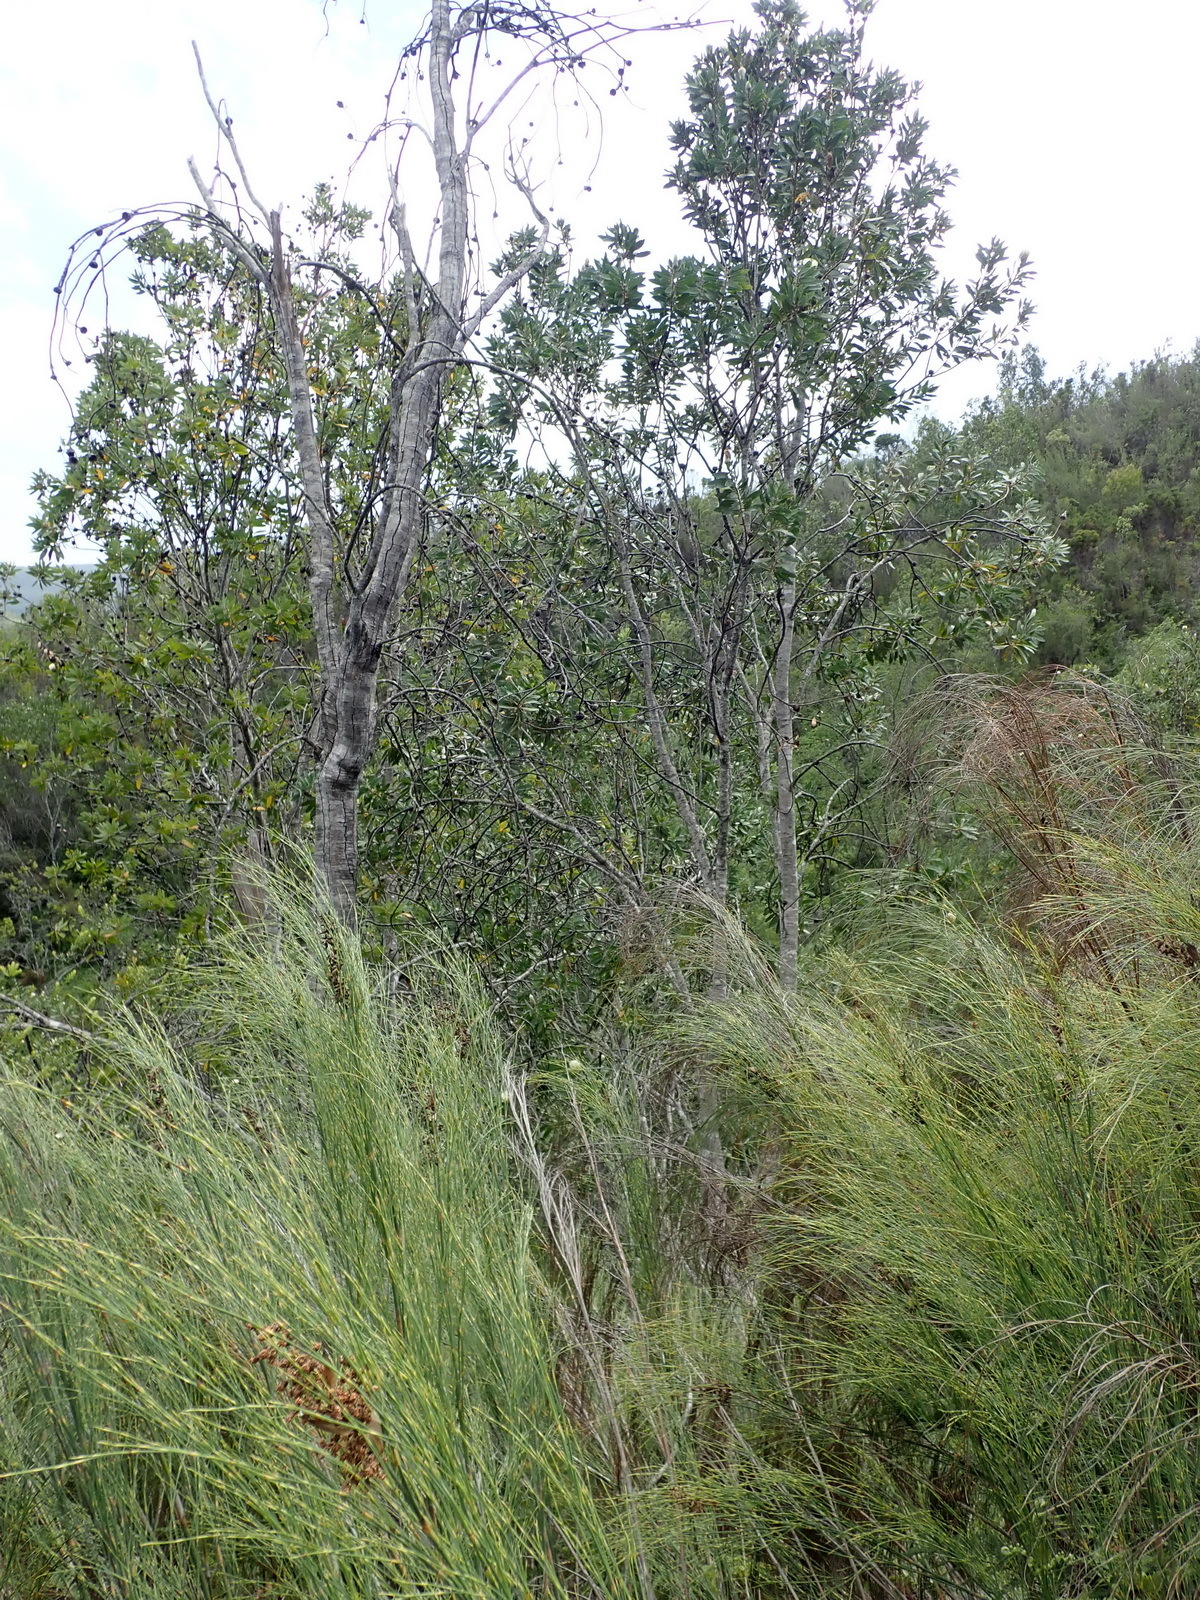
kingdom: Plantae
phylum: Tracheophyta
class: Magnoliopsida
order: Proteales
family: Proteaceae
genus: Protea
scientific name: Protea mundii
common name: Forest sugarbush
